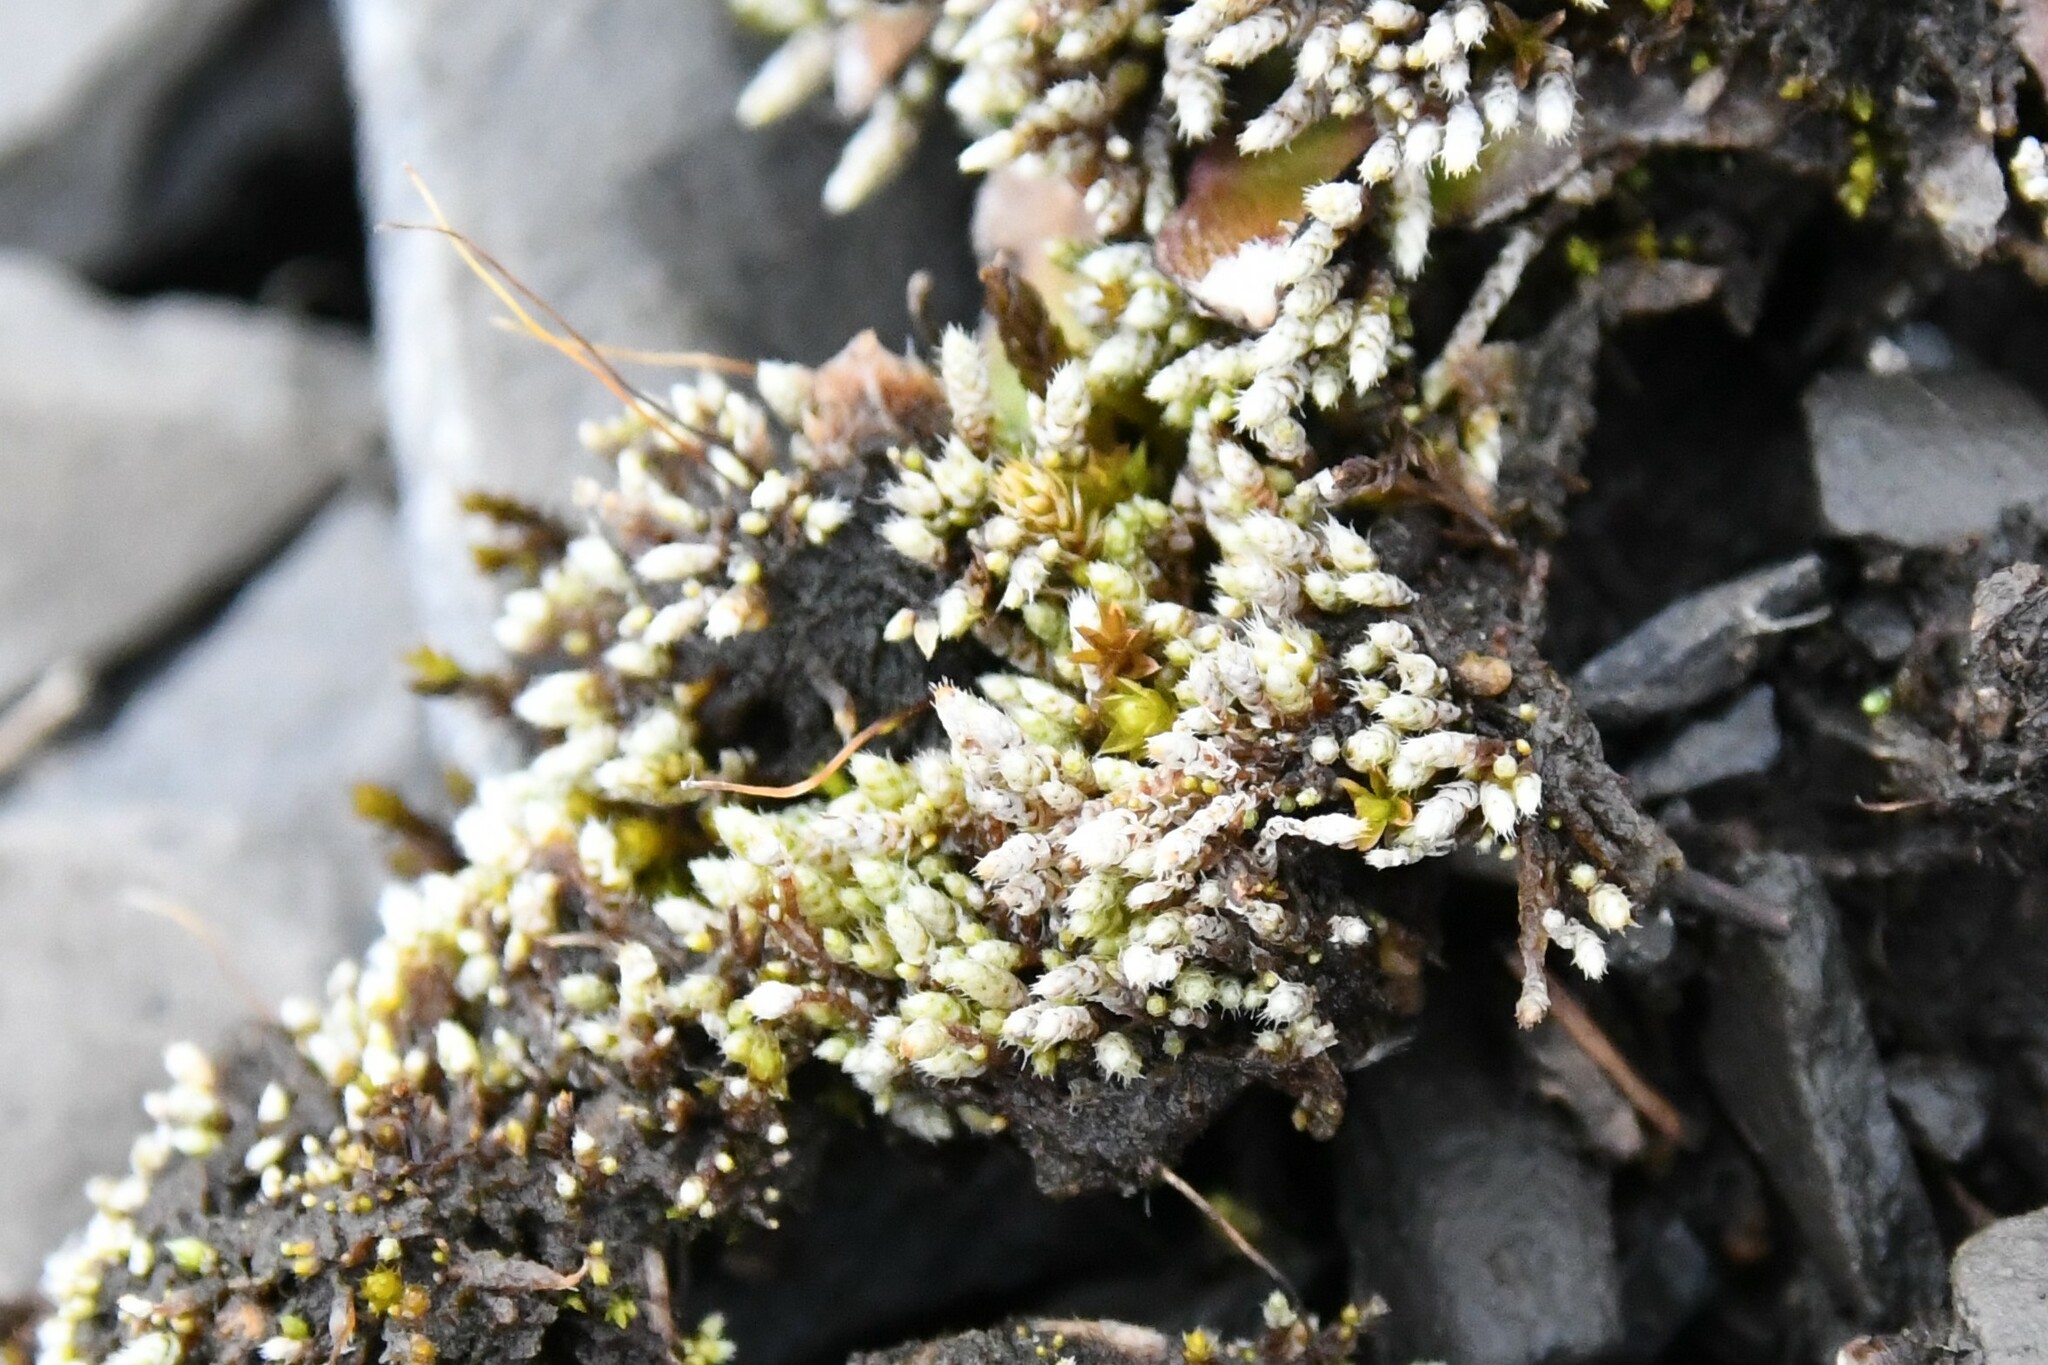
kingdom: Plantae
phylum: Bryophyta
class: Bryopsida
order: Bryales
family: Bryaceae
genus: Bryum
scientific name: Bryum argenteum
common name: Silver-moss
